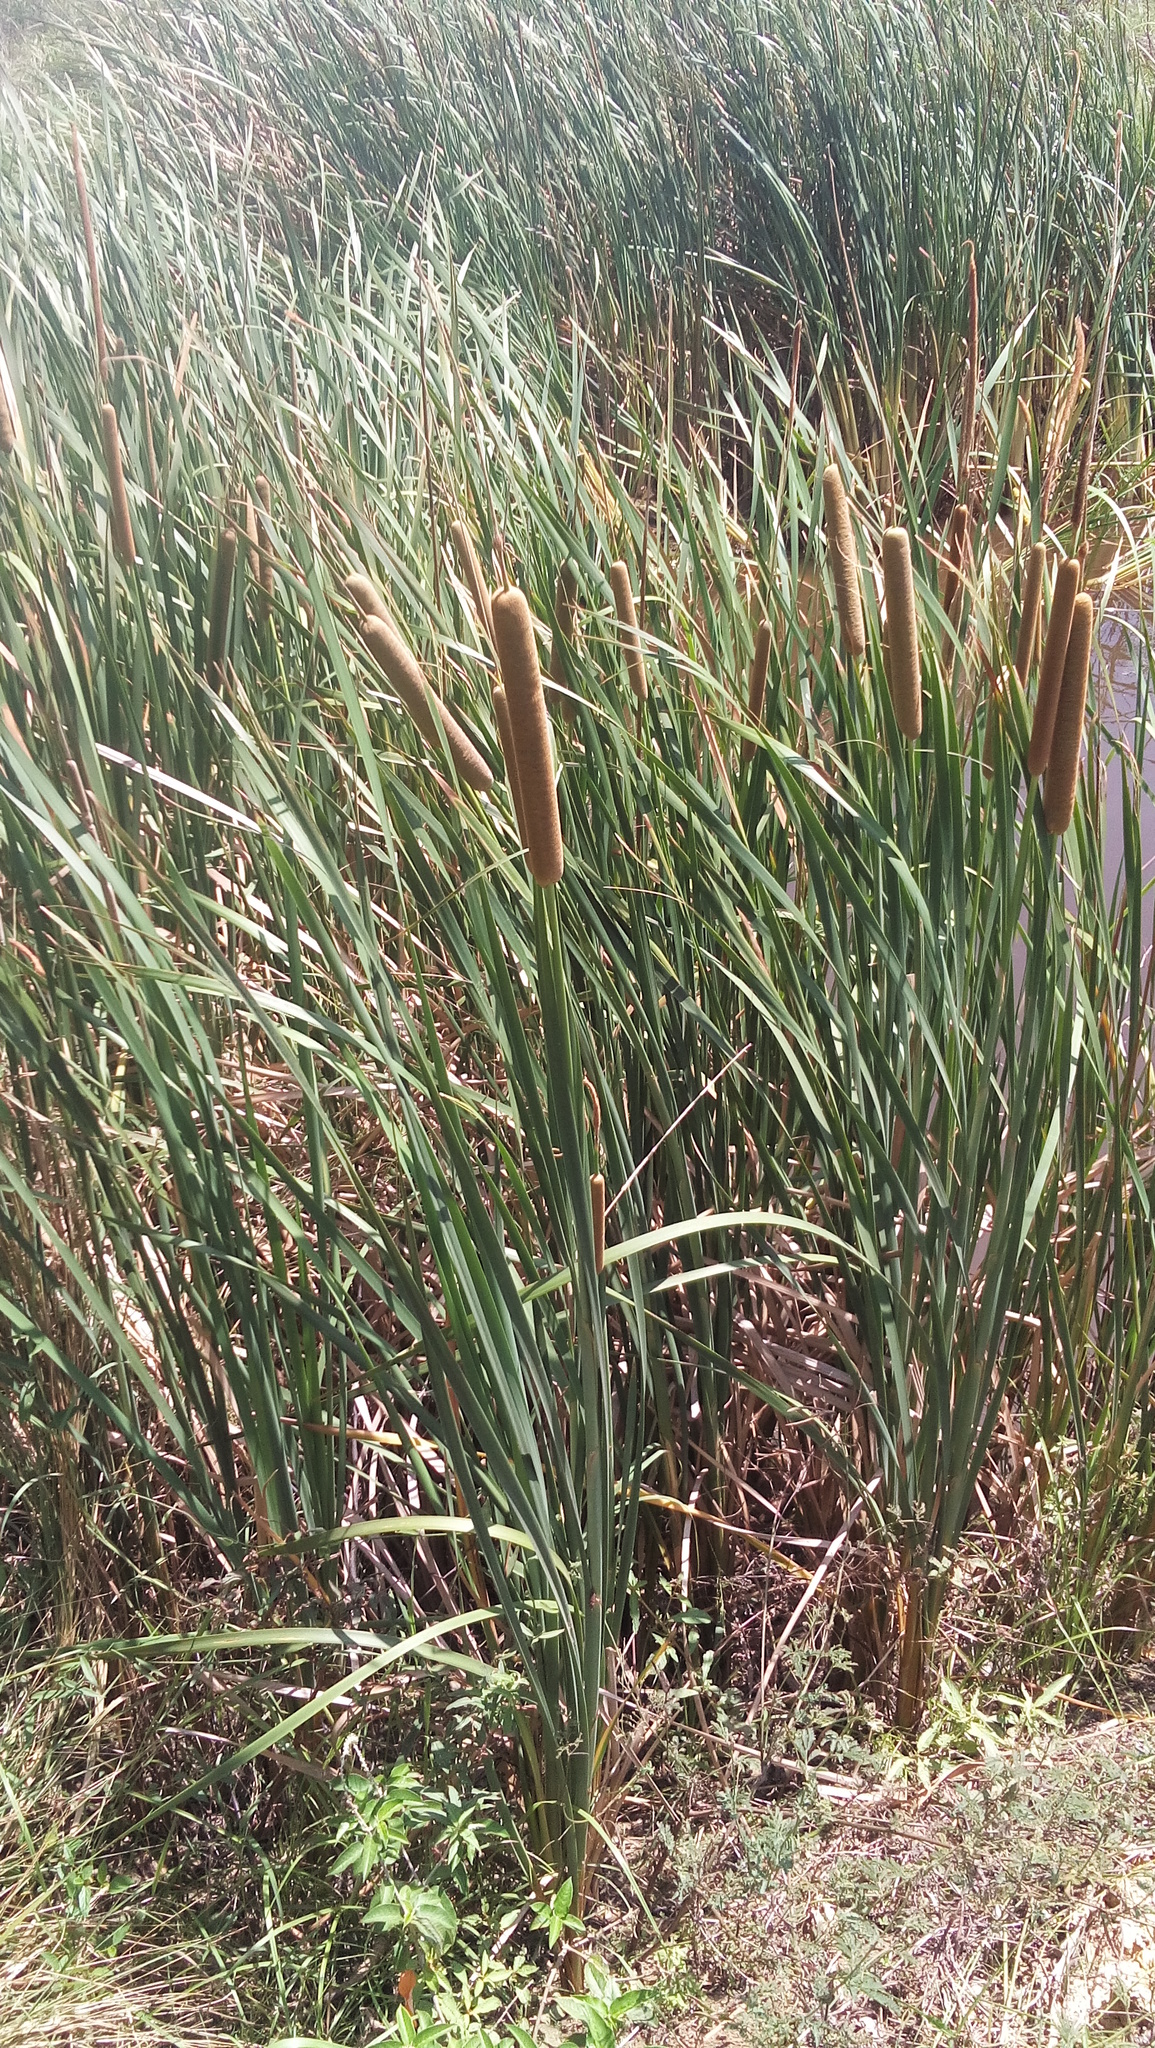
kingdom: Plantae
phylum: Tracheophyta
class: Liliopsida
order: Poales
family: Typhaceae
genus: Typha
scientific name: Typha domingensis
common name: Southern cattail
